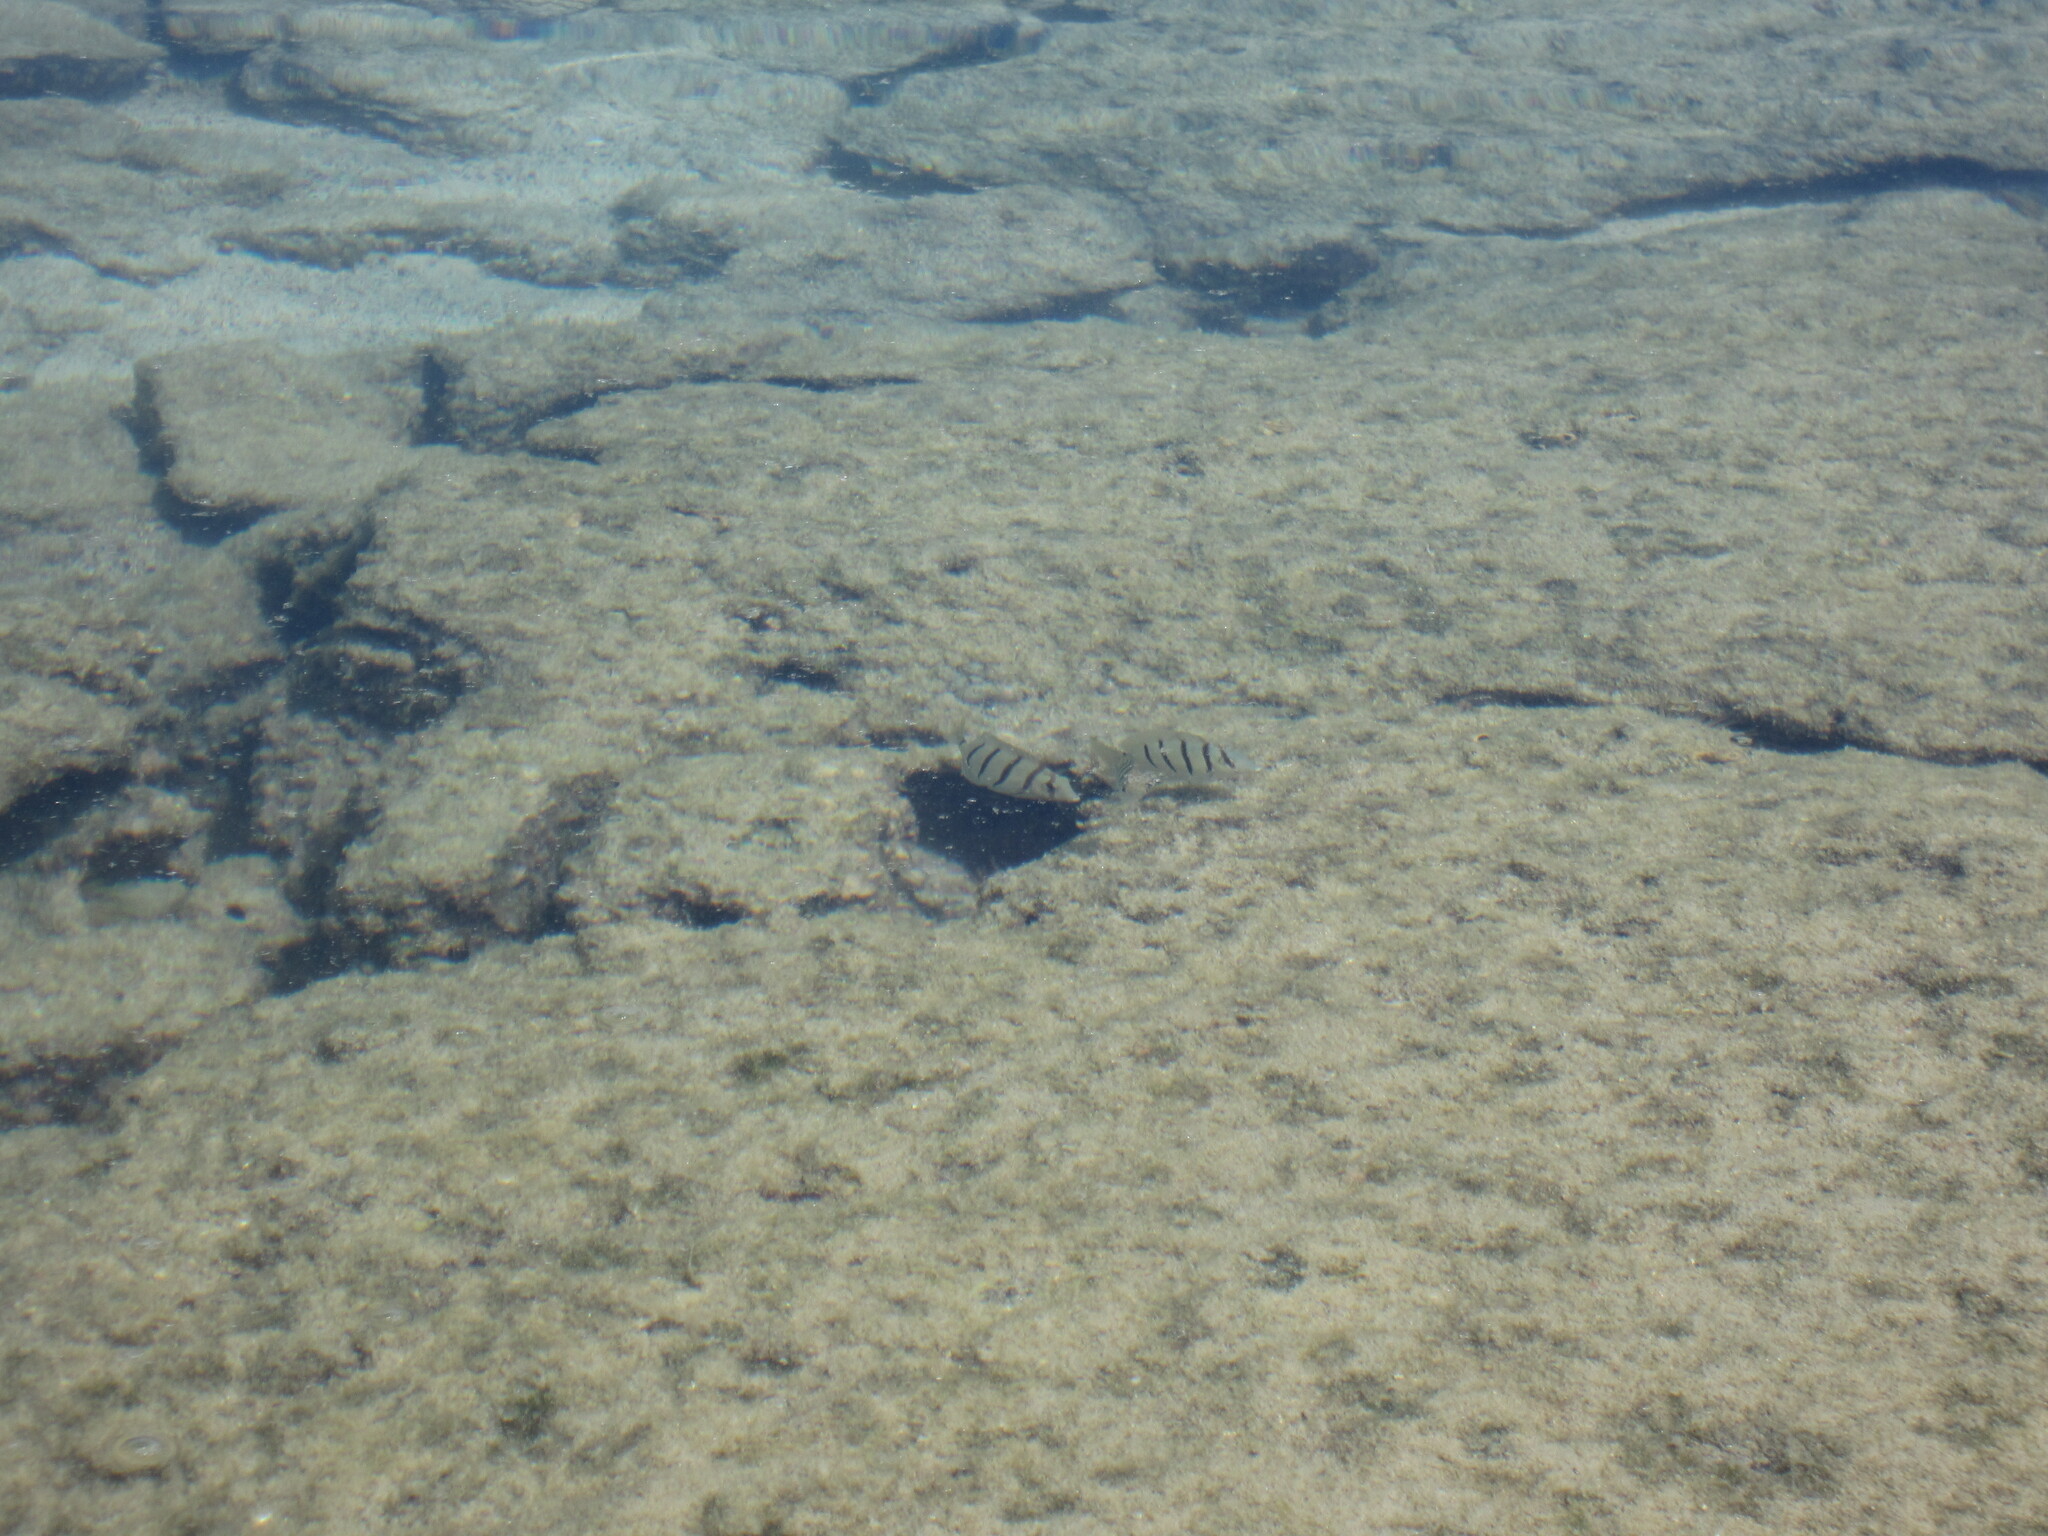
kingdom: Animalia
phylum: Chordata
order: Perciformes
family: Acanthuridae
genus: Acanthurus
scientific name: Acanthurus triostegus
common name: Convict surgeonfish
